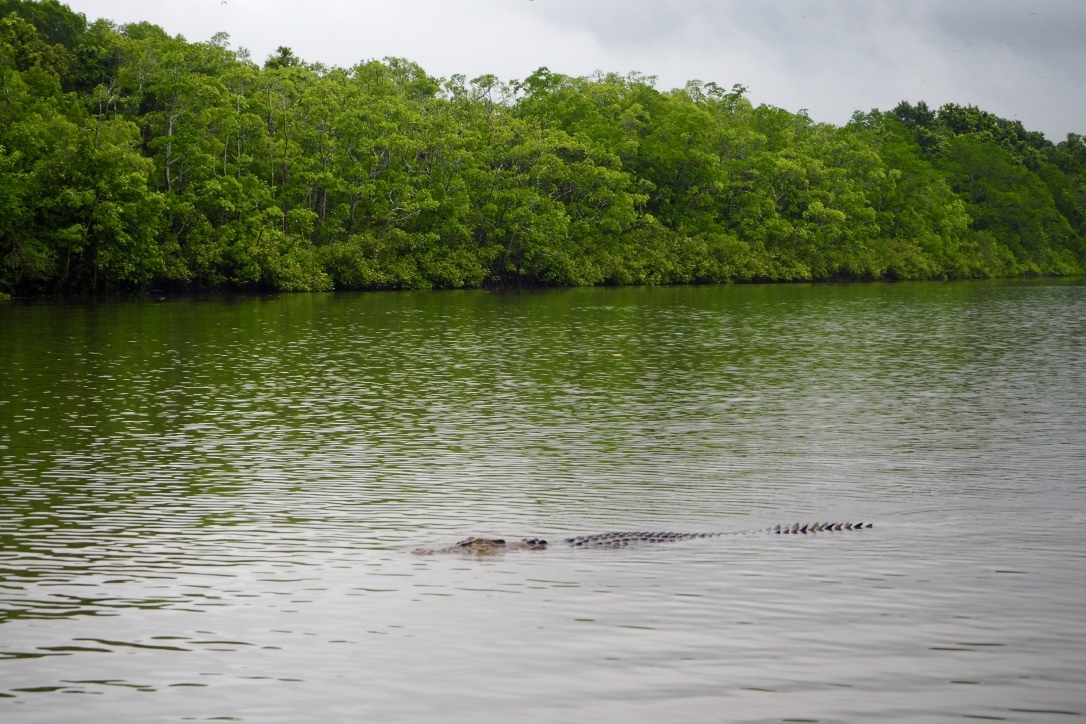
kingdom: Animalia
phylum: Chordata
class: Crocodylia
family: Crocodylidae
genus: Crocodylus
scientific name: Crocodylus porosus
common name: Saltwater crocodile
